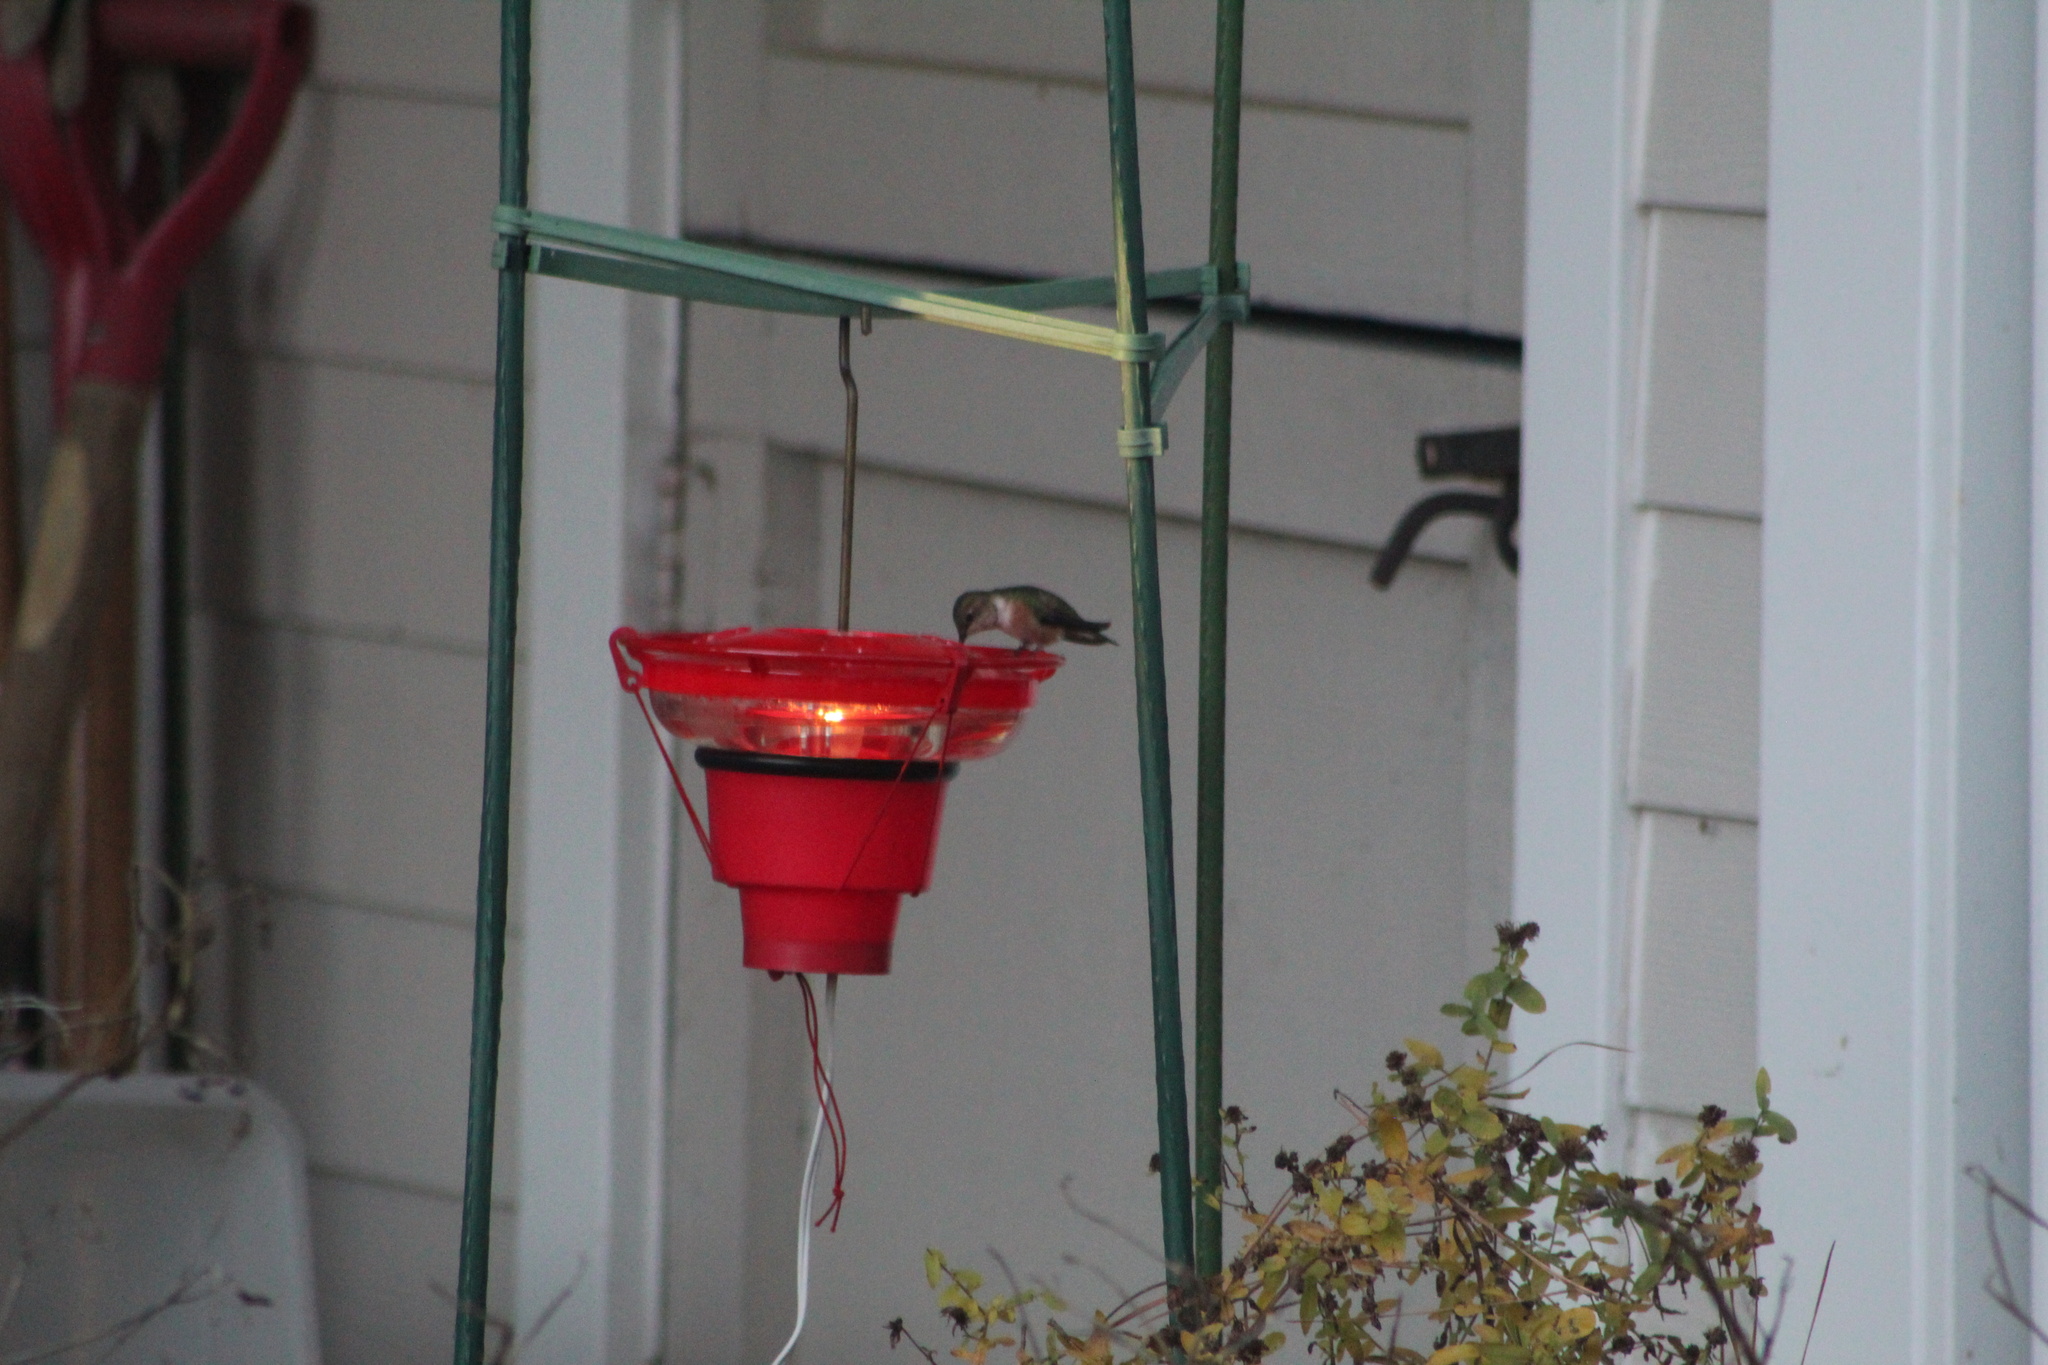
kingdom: Animalia
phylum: Chordata
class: Aves
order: Apodiformes
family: Trochilidae
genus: Selasphorus
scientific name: Selasphorus rufus
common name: Rufous hummingbird
